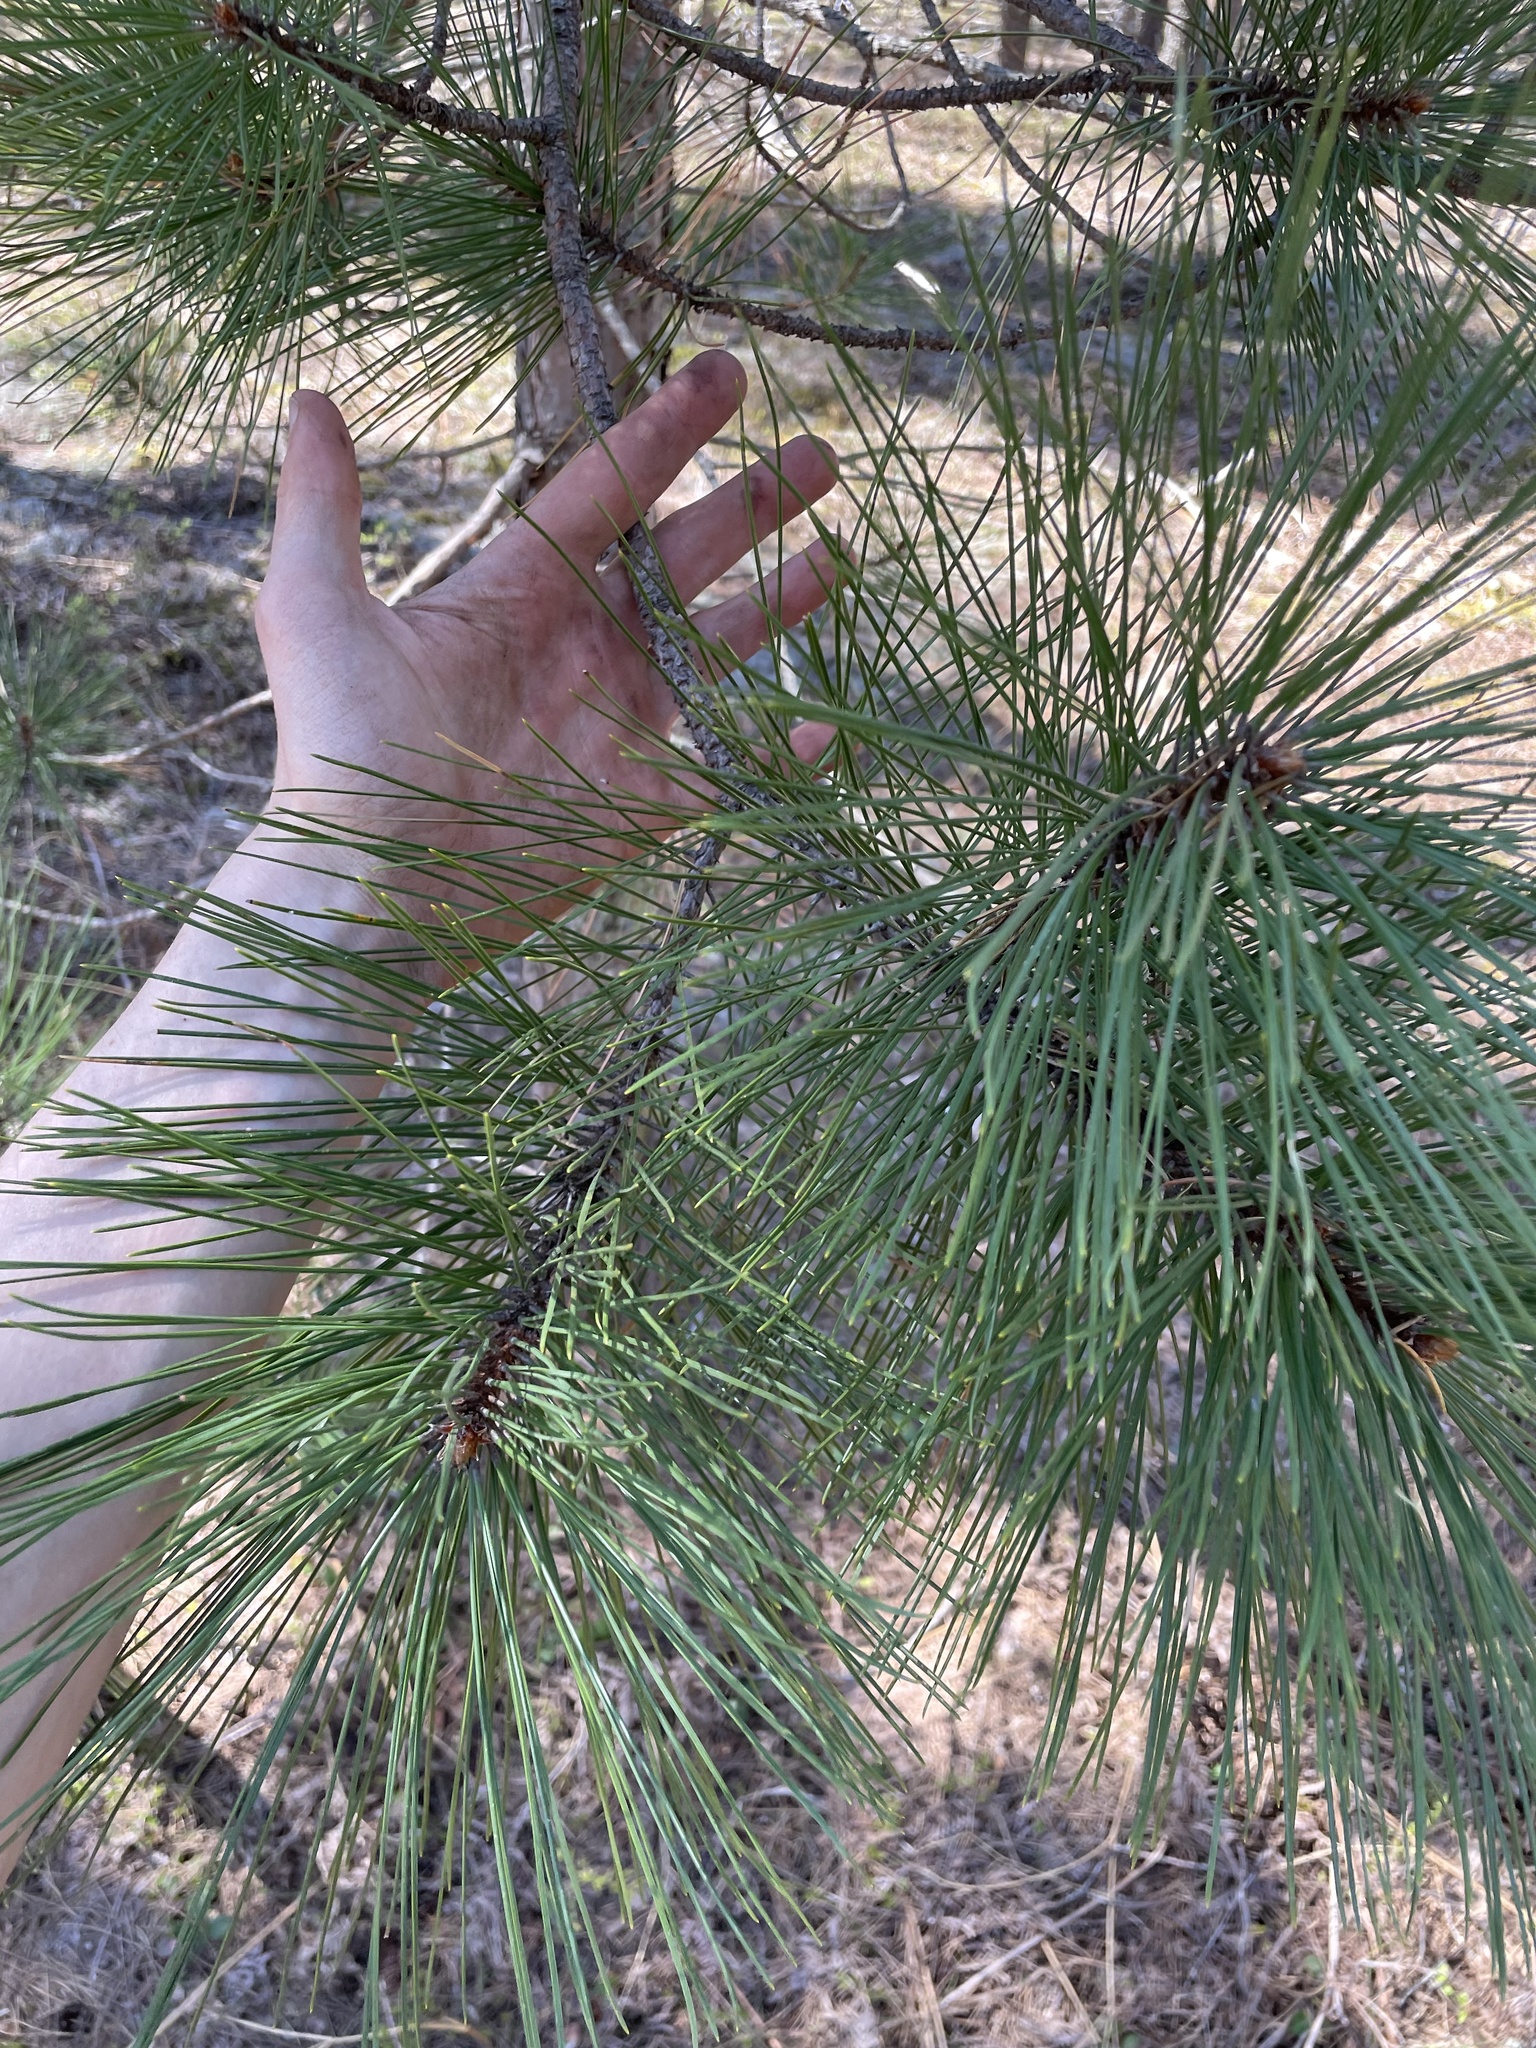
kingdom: Plantae
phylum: Tracheophyta
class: Pinopsida
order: Pinales
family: Pinaceae
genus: Pinus
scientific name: Pinus resinosa
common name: Norway pine
